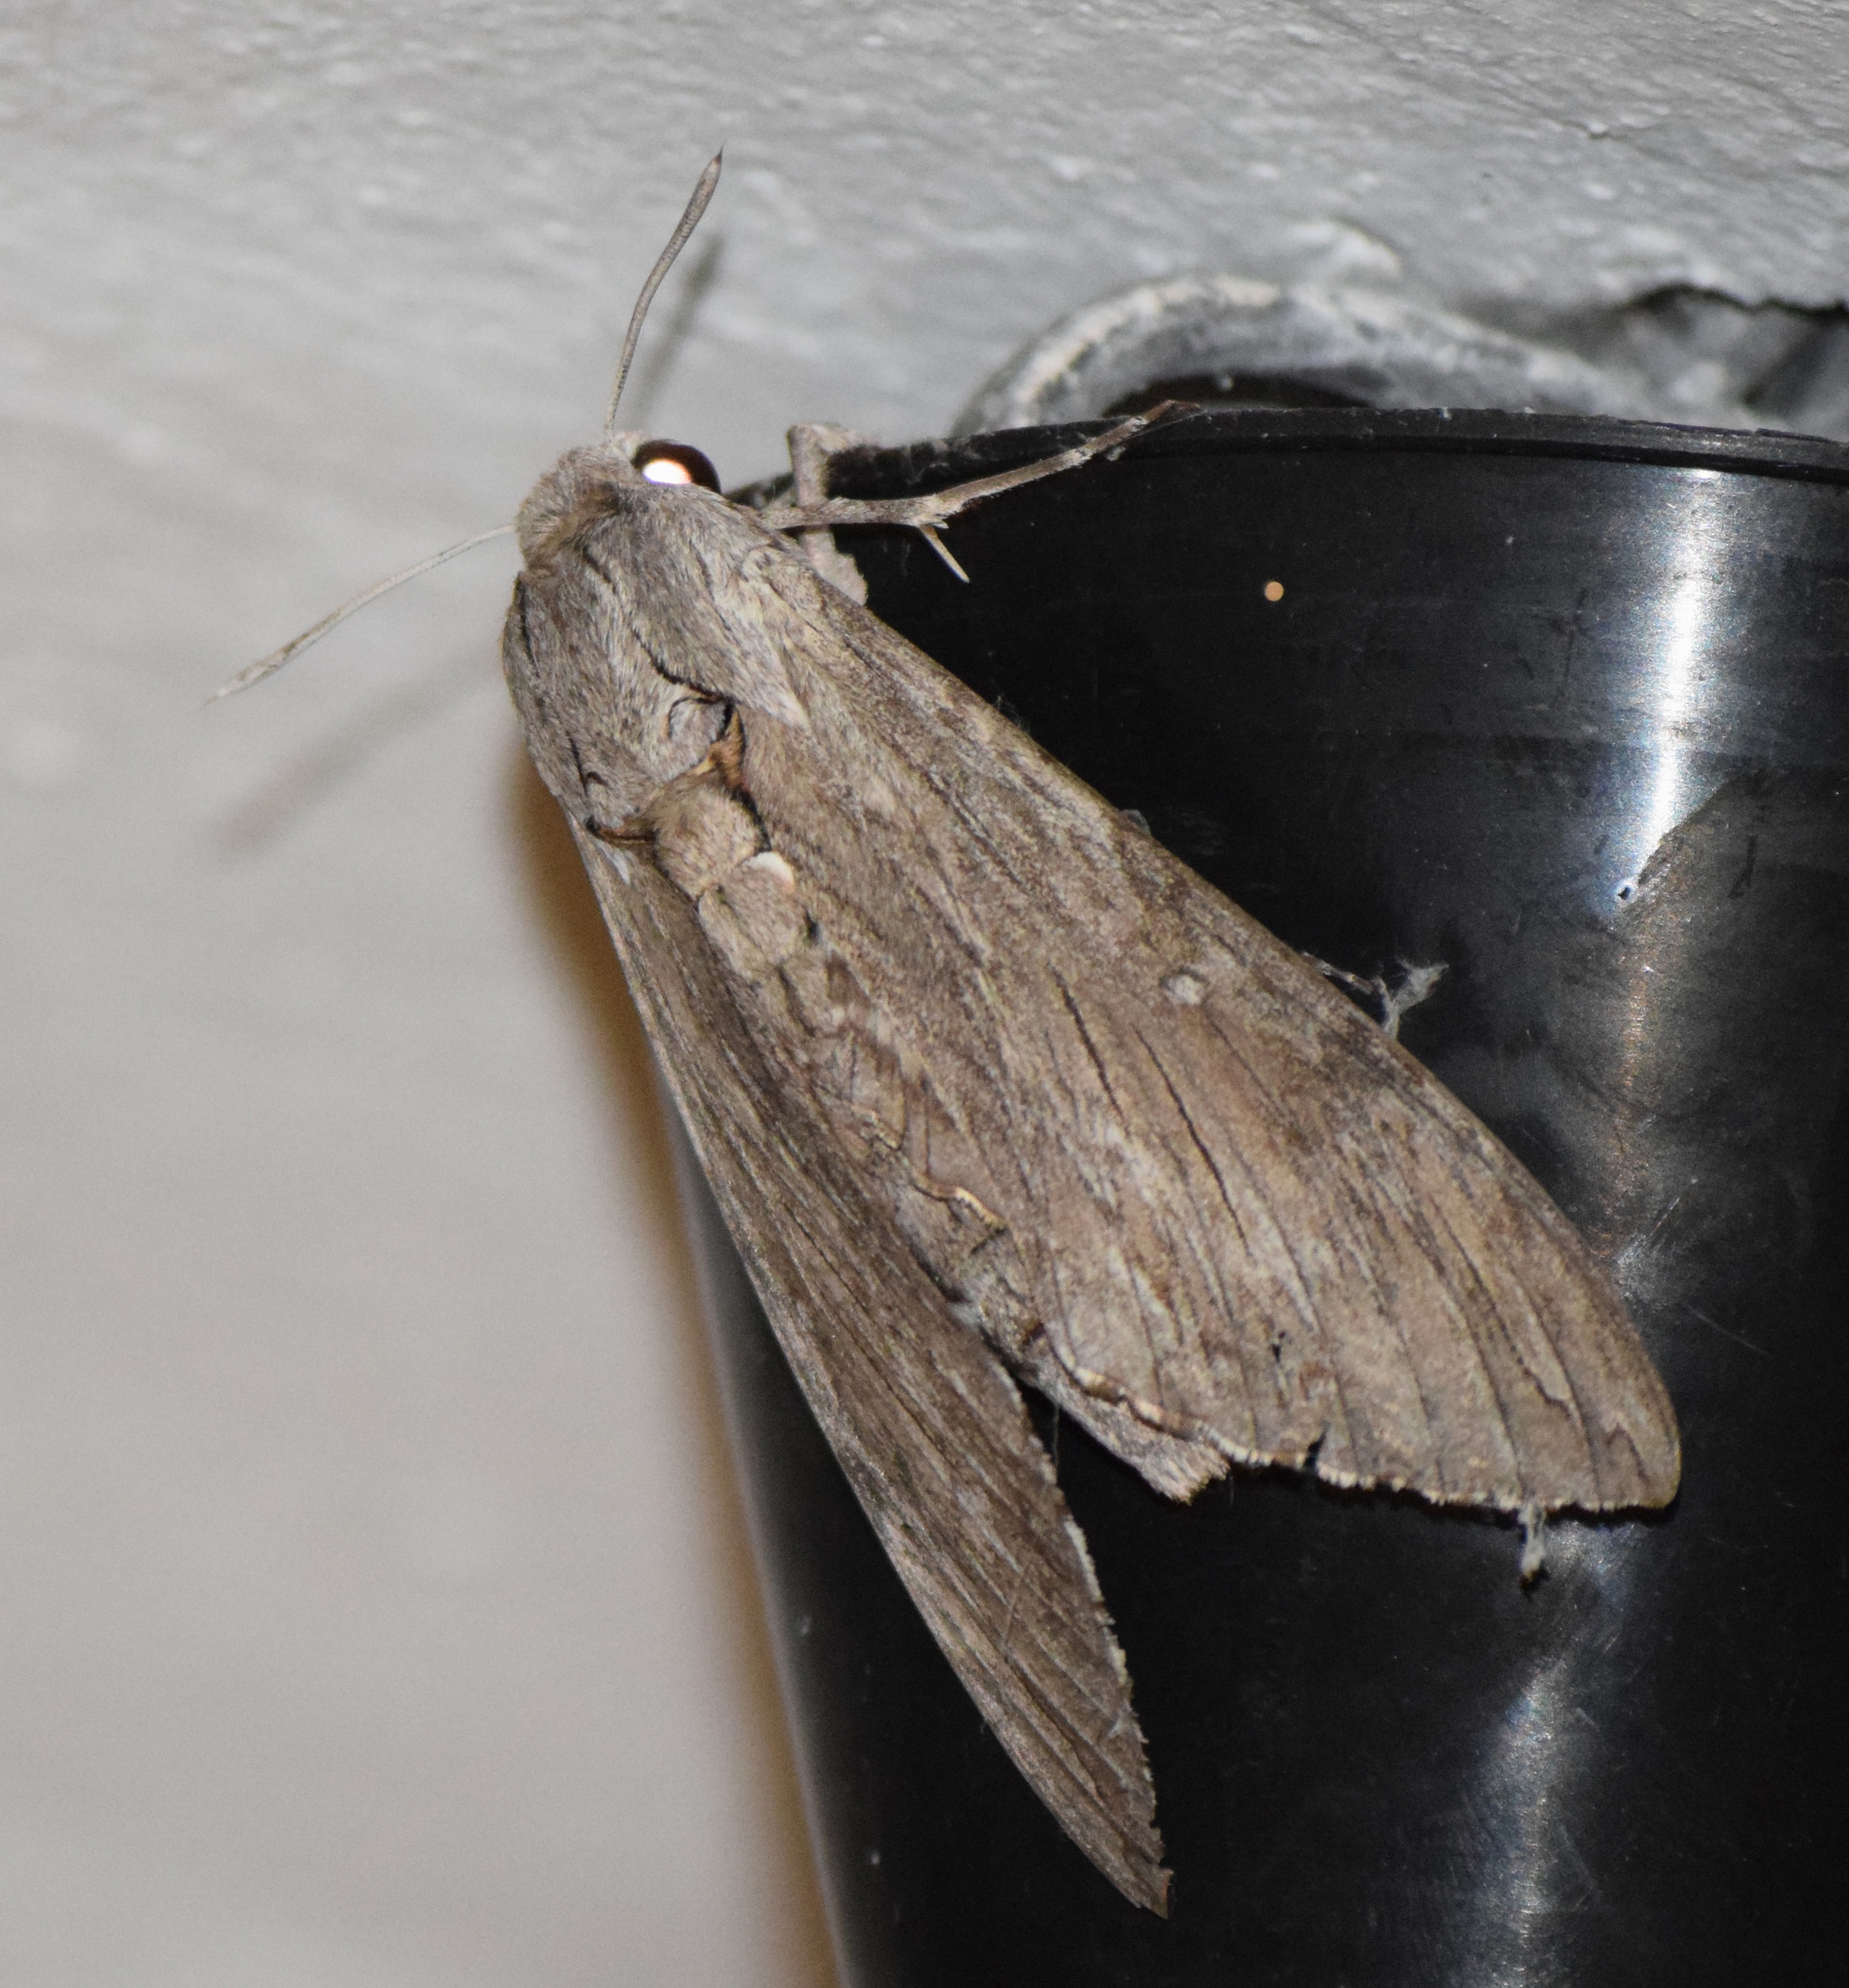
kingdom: Animalia
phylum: Arthropoda
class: Insecta
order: Lepidoptera
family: Sphingidae
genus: Agrius
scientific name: Agrius convolvuli
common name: Convolvulus hawkmoth
